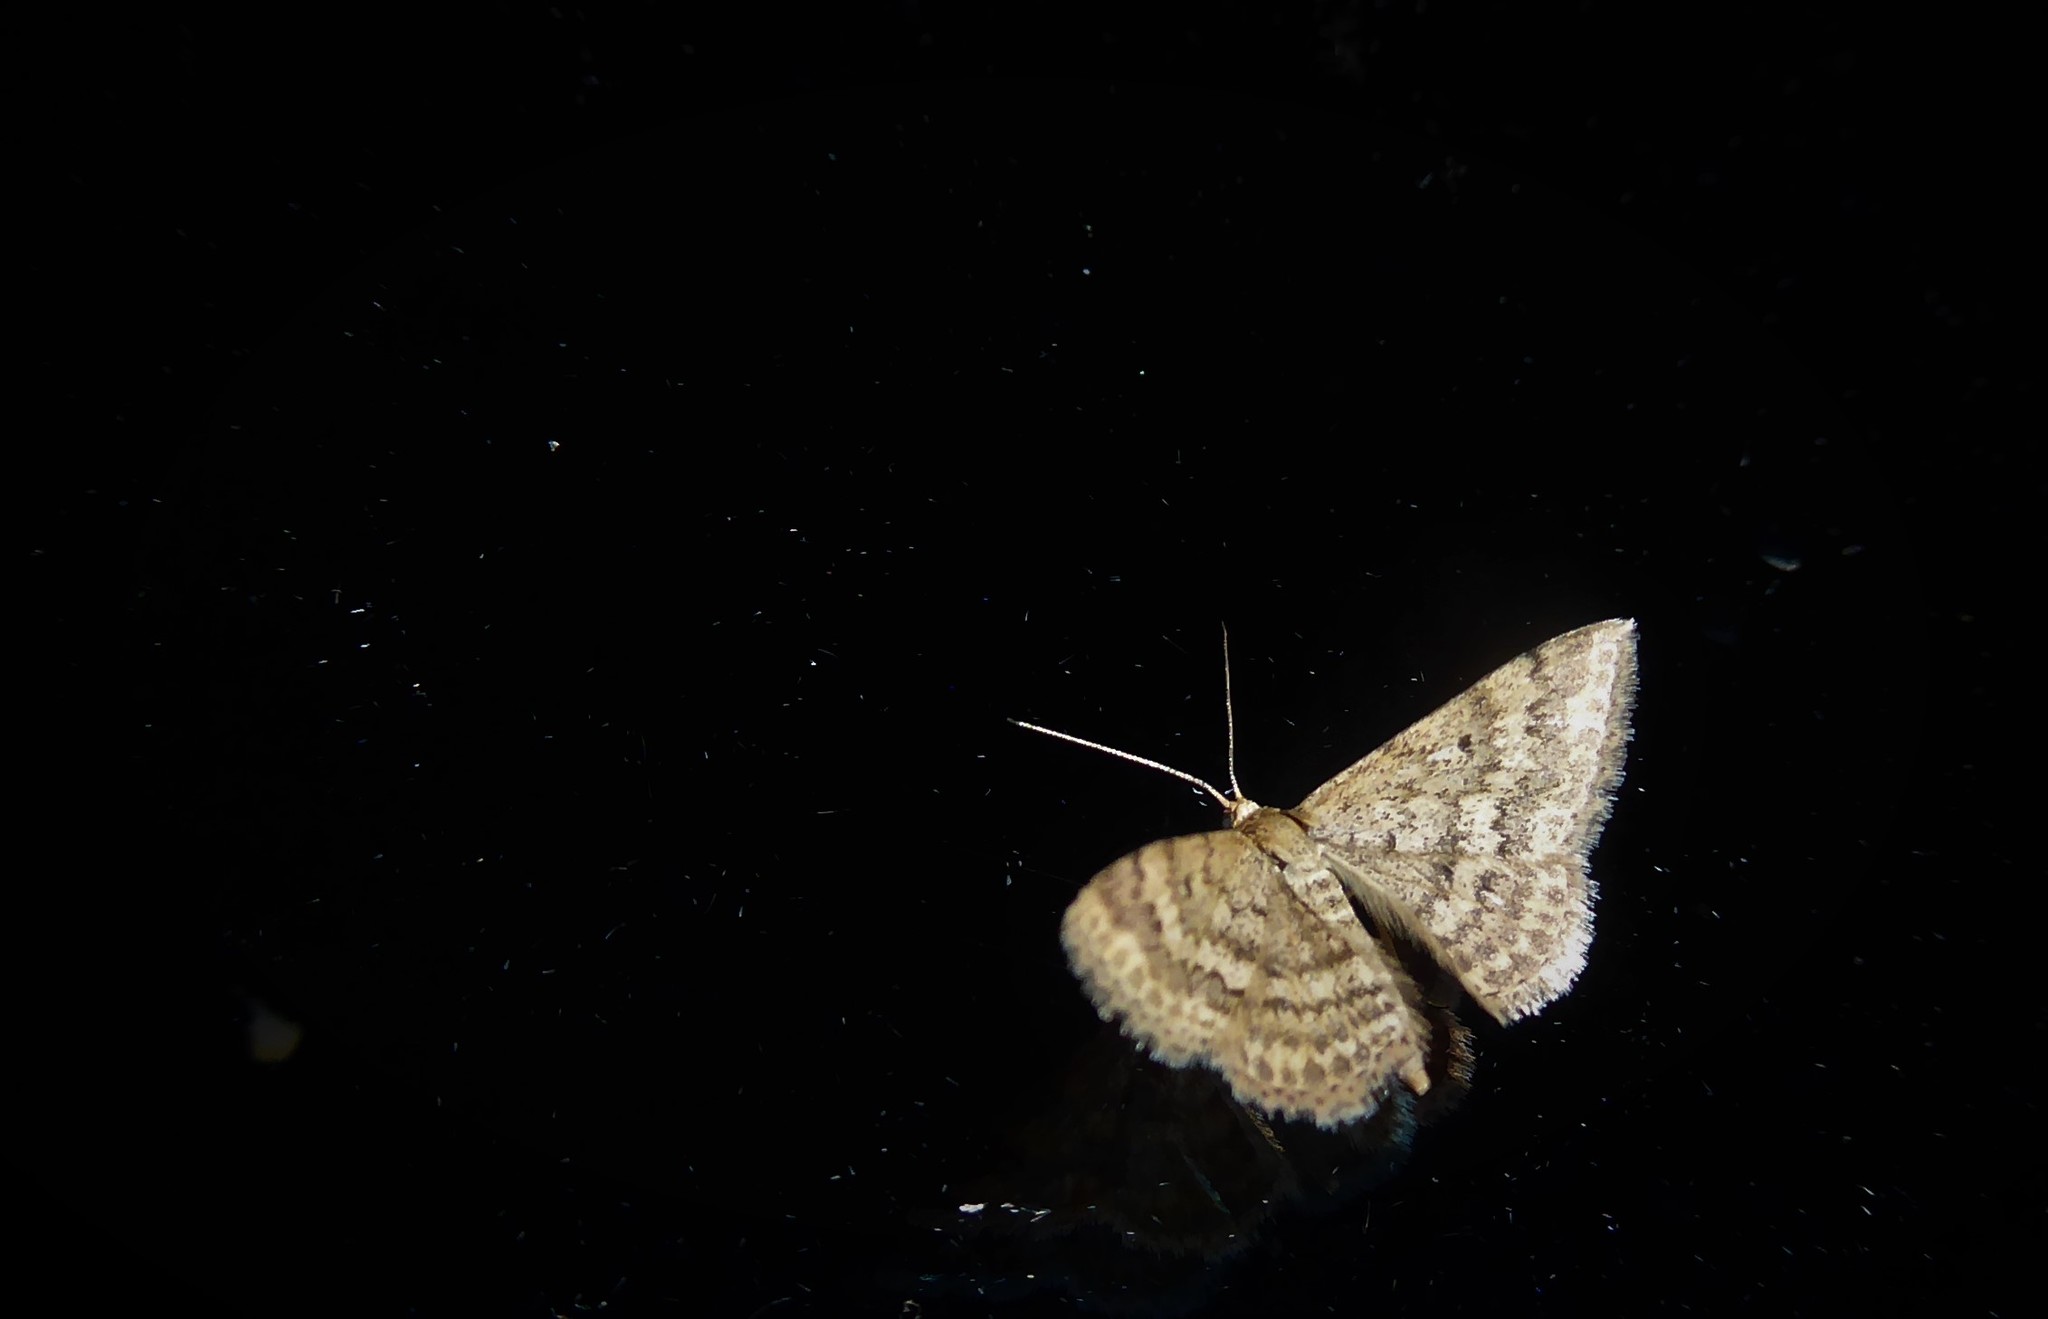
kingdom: Animalia
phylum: Arthropoda
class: Insecta
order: Lepidoptera
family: Geometridae
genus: Scopula
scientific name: Scopula rubraria
